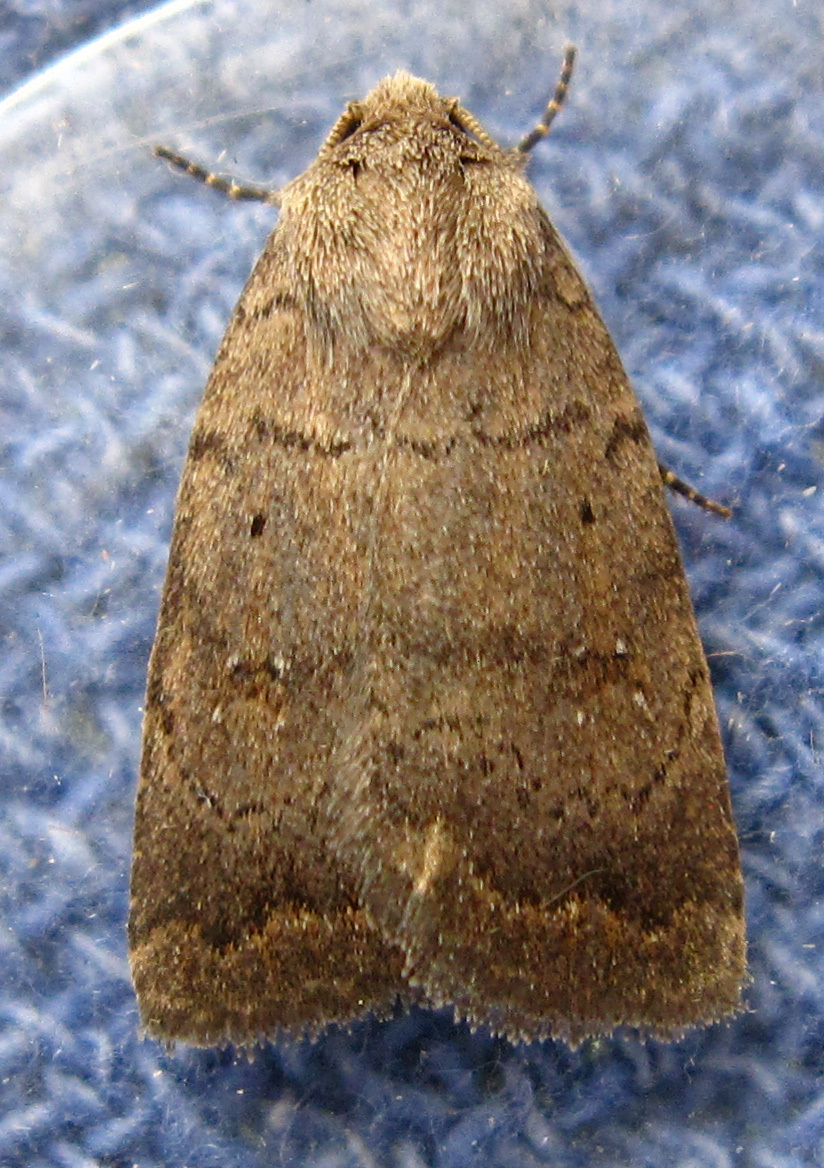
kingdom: Animalia
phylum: Arthropoda
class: Insecta
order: Lepidoptera
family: Noctuidae
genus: Athetis
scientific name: Athetis tarda
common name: Slowpoke moth
